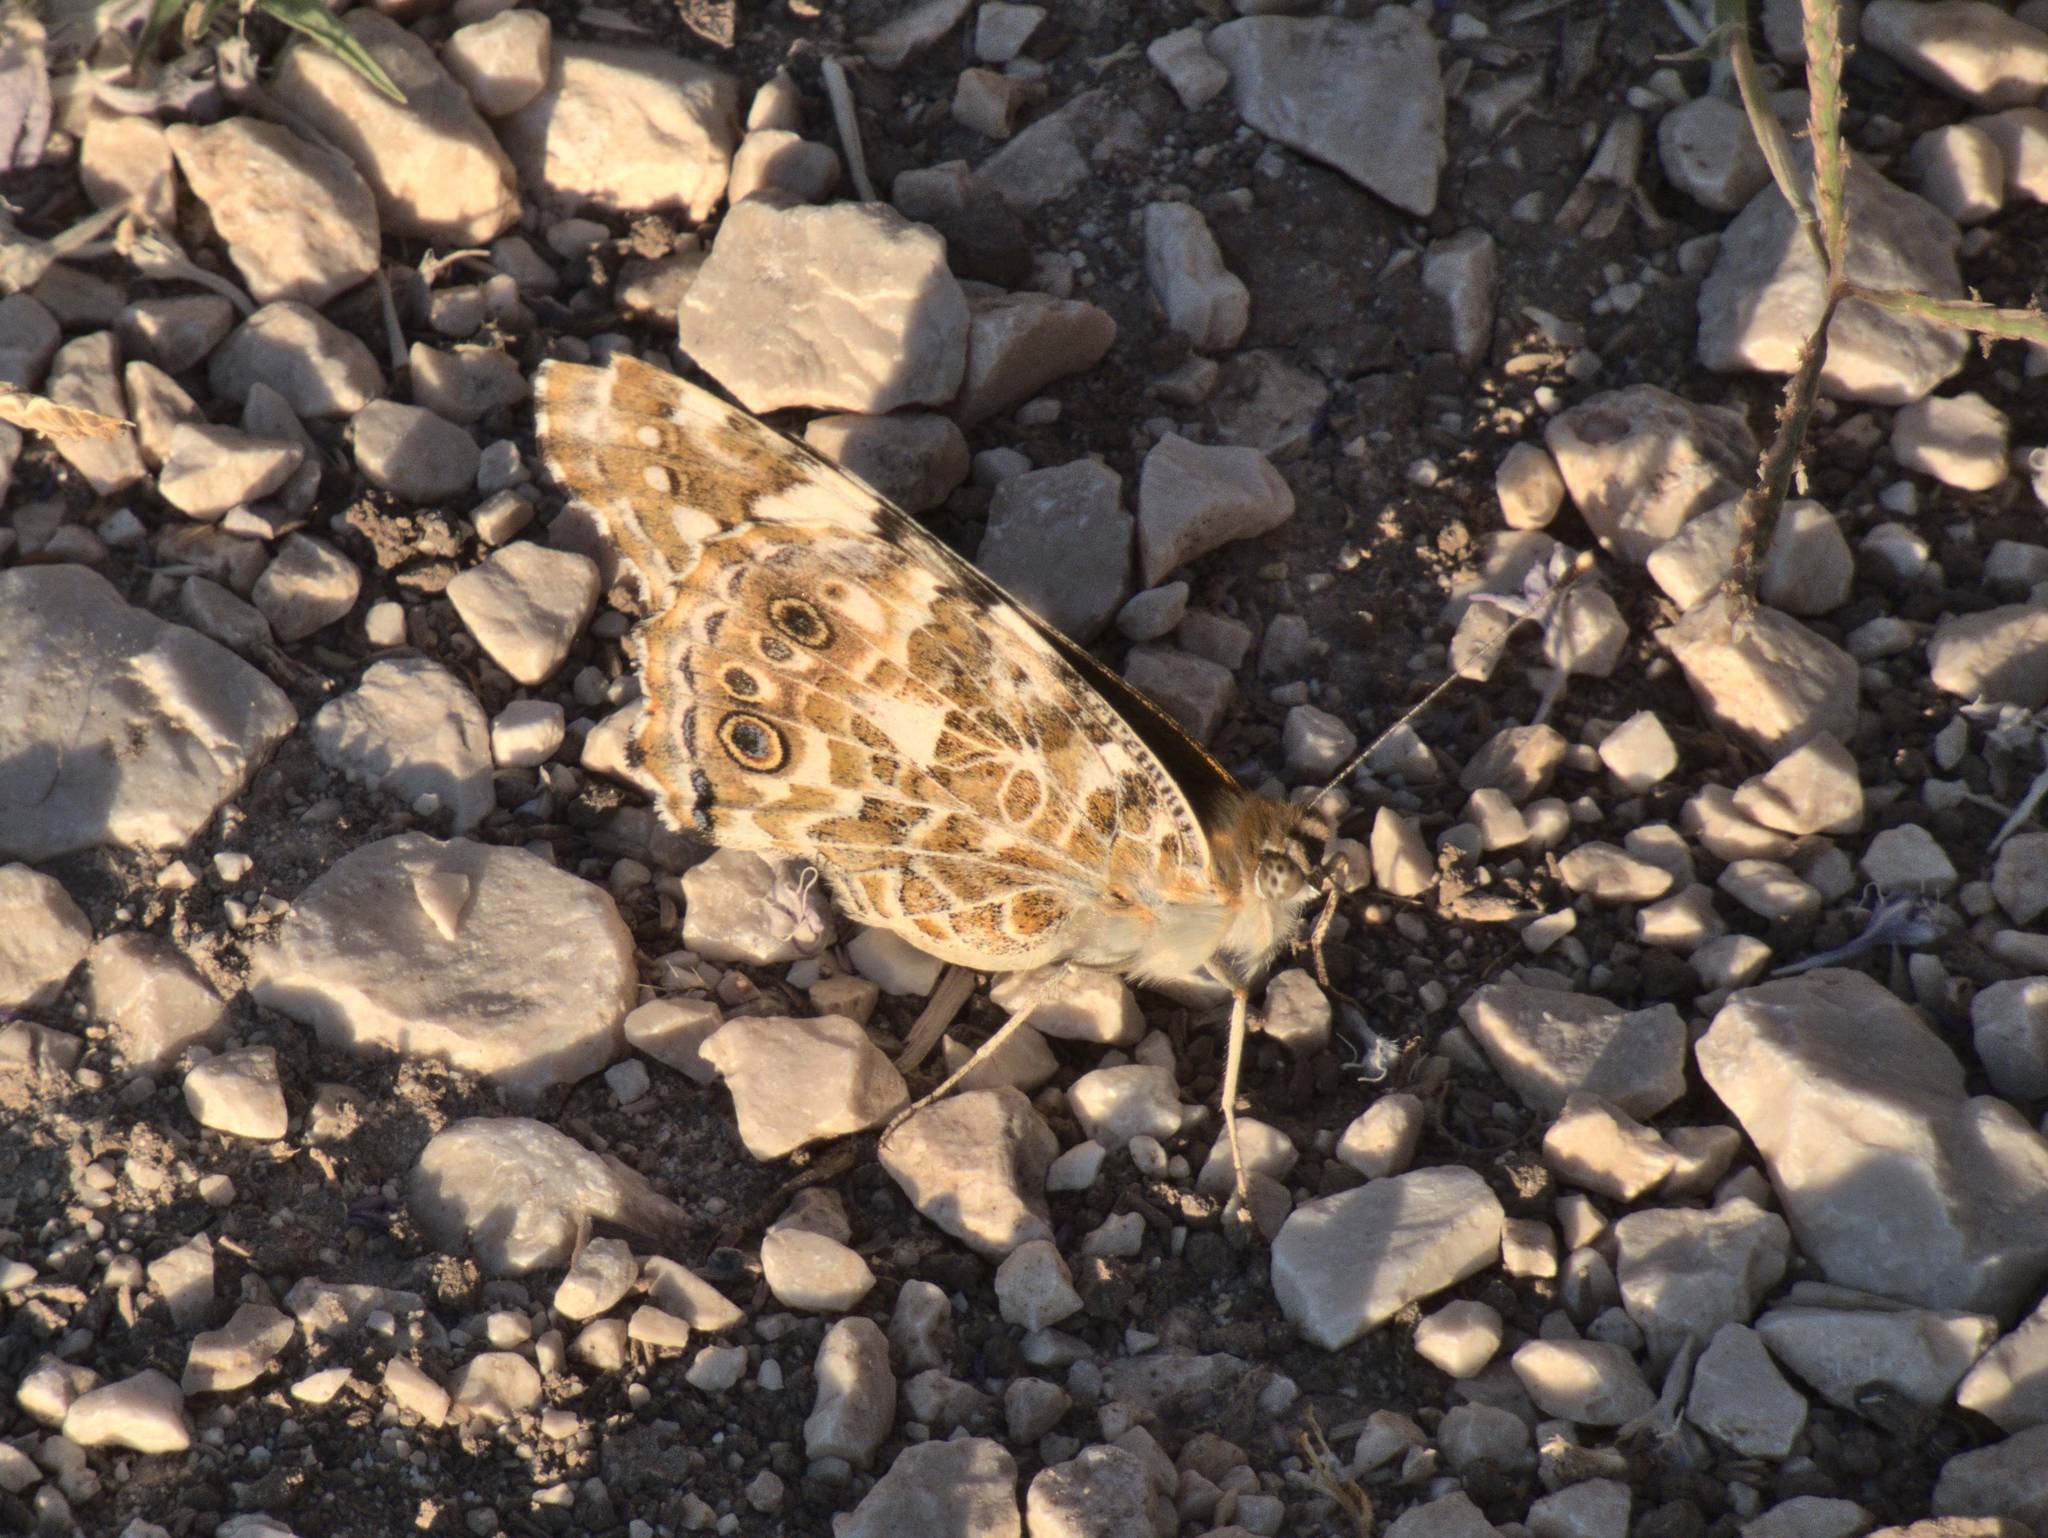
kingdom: Animalia
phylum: Arthropoda
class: Insecta
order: Lepidoptera
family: Nymphalidae
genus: Vanessa
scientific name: Vanessa cardui
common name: Painted lady
